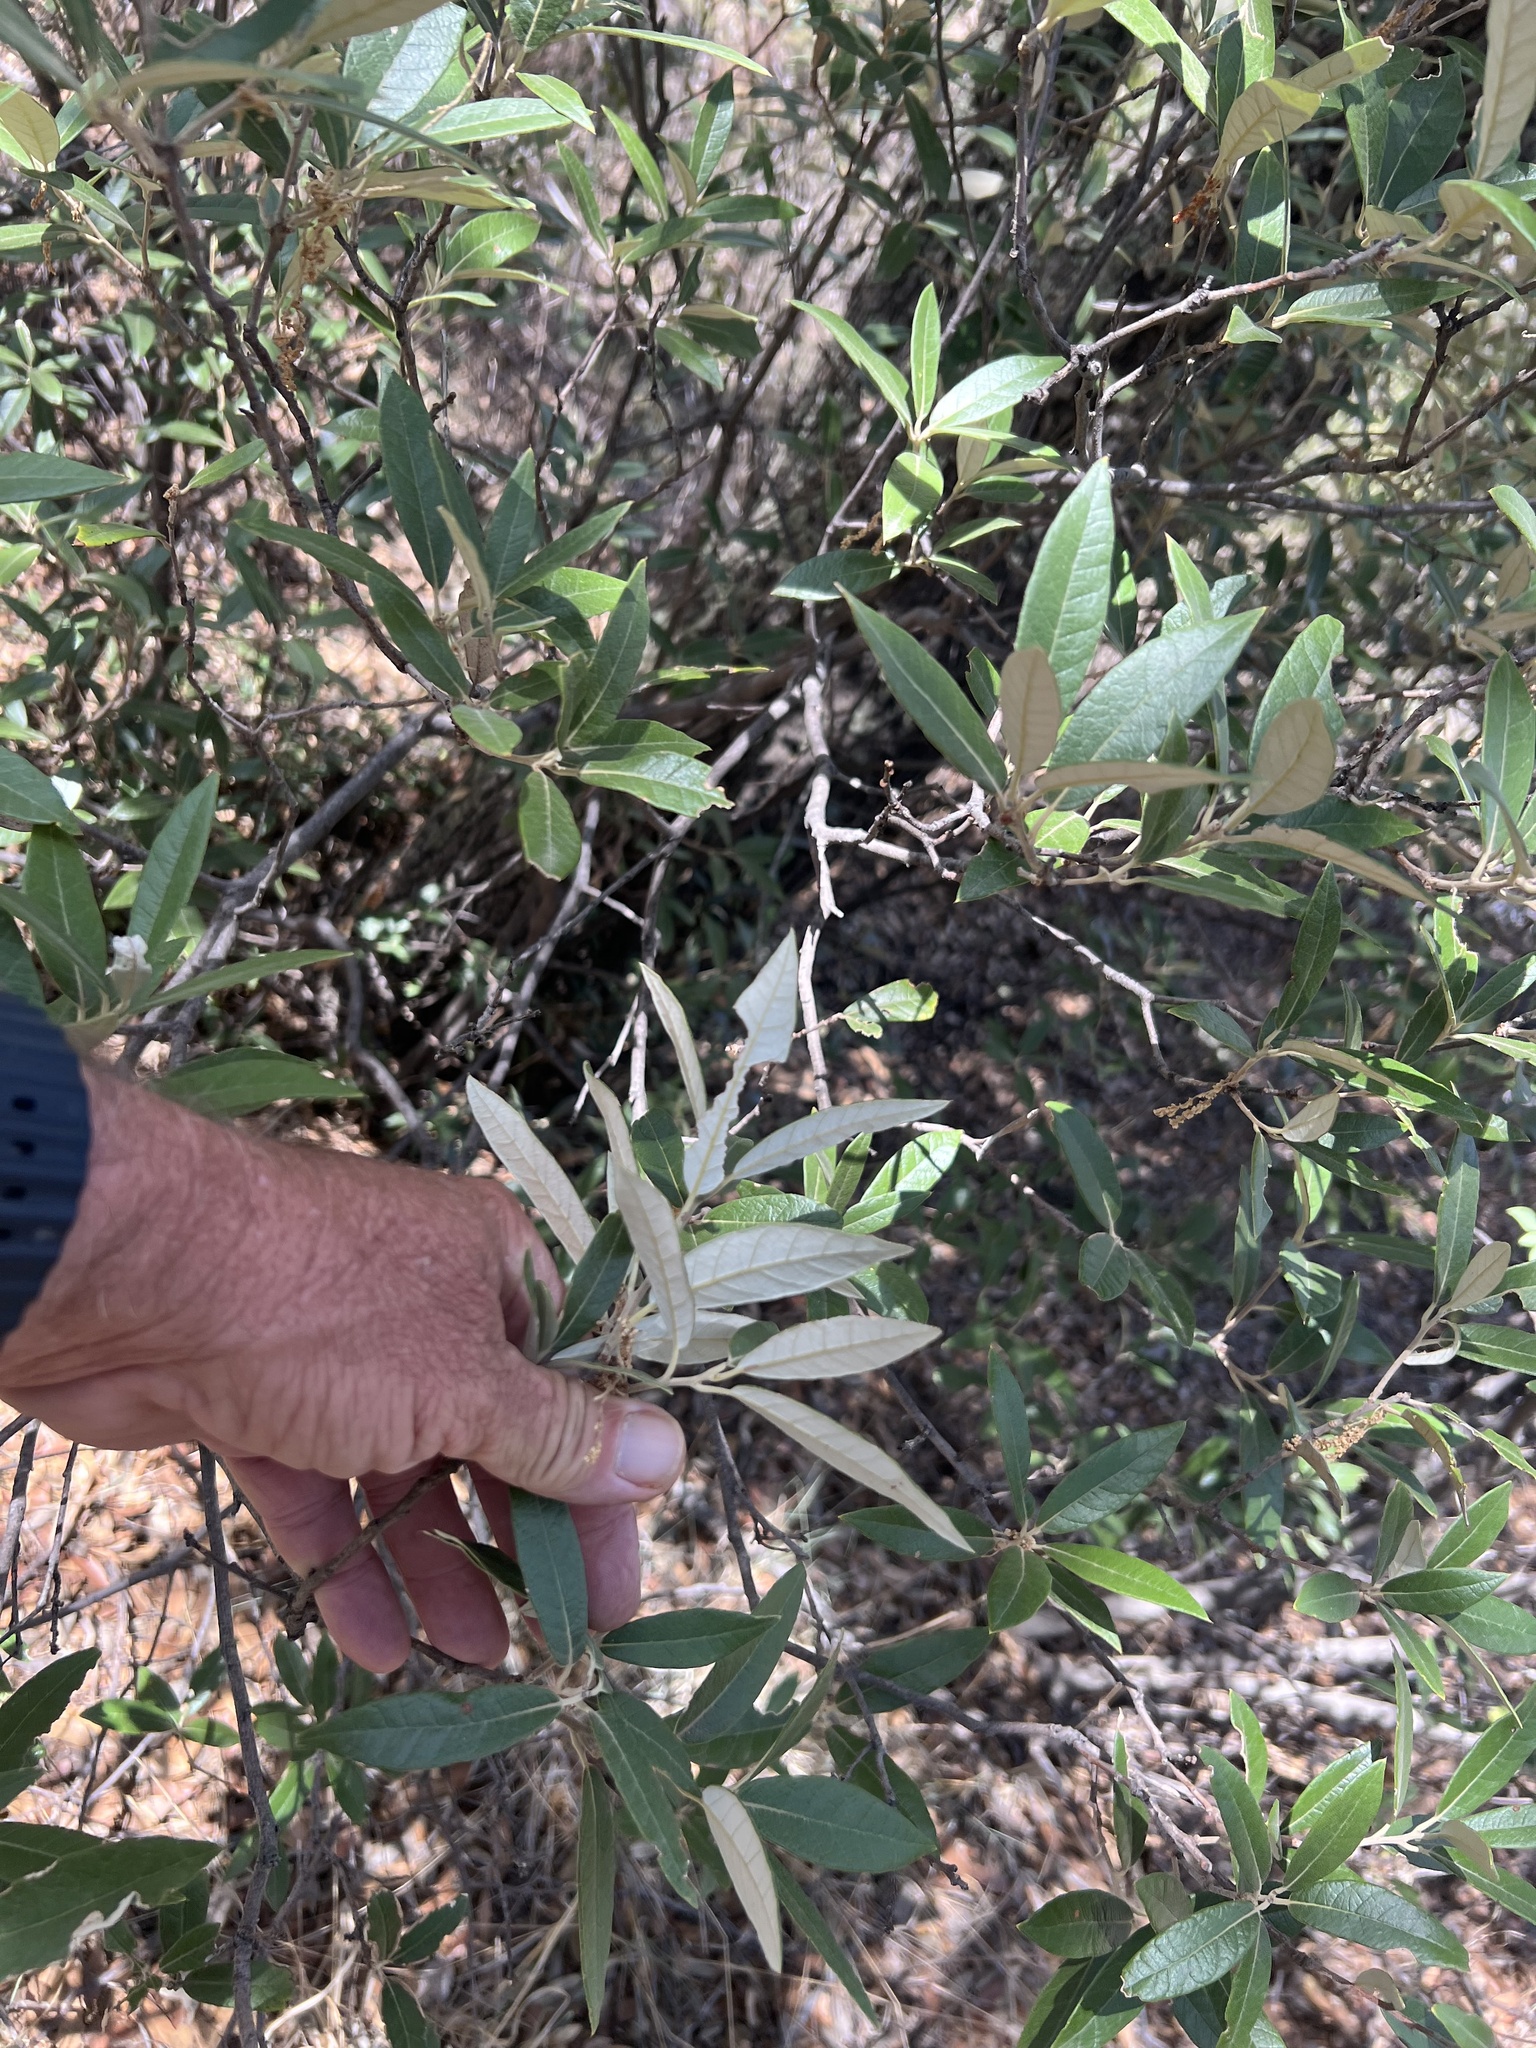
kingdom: Plantae
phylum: Tracheophyta
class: Magnoliopsida
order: Fagales
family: Fagaceae
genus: Quercus
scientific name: Quercus hypoleucoides
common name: Silverleaf oak
